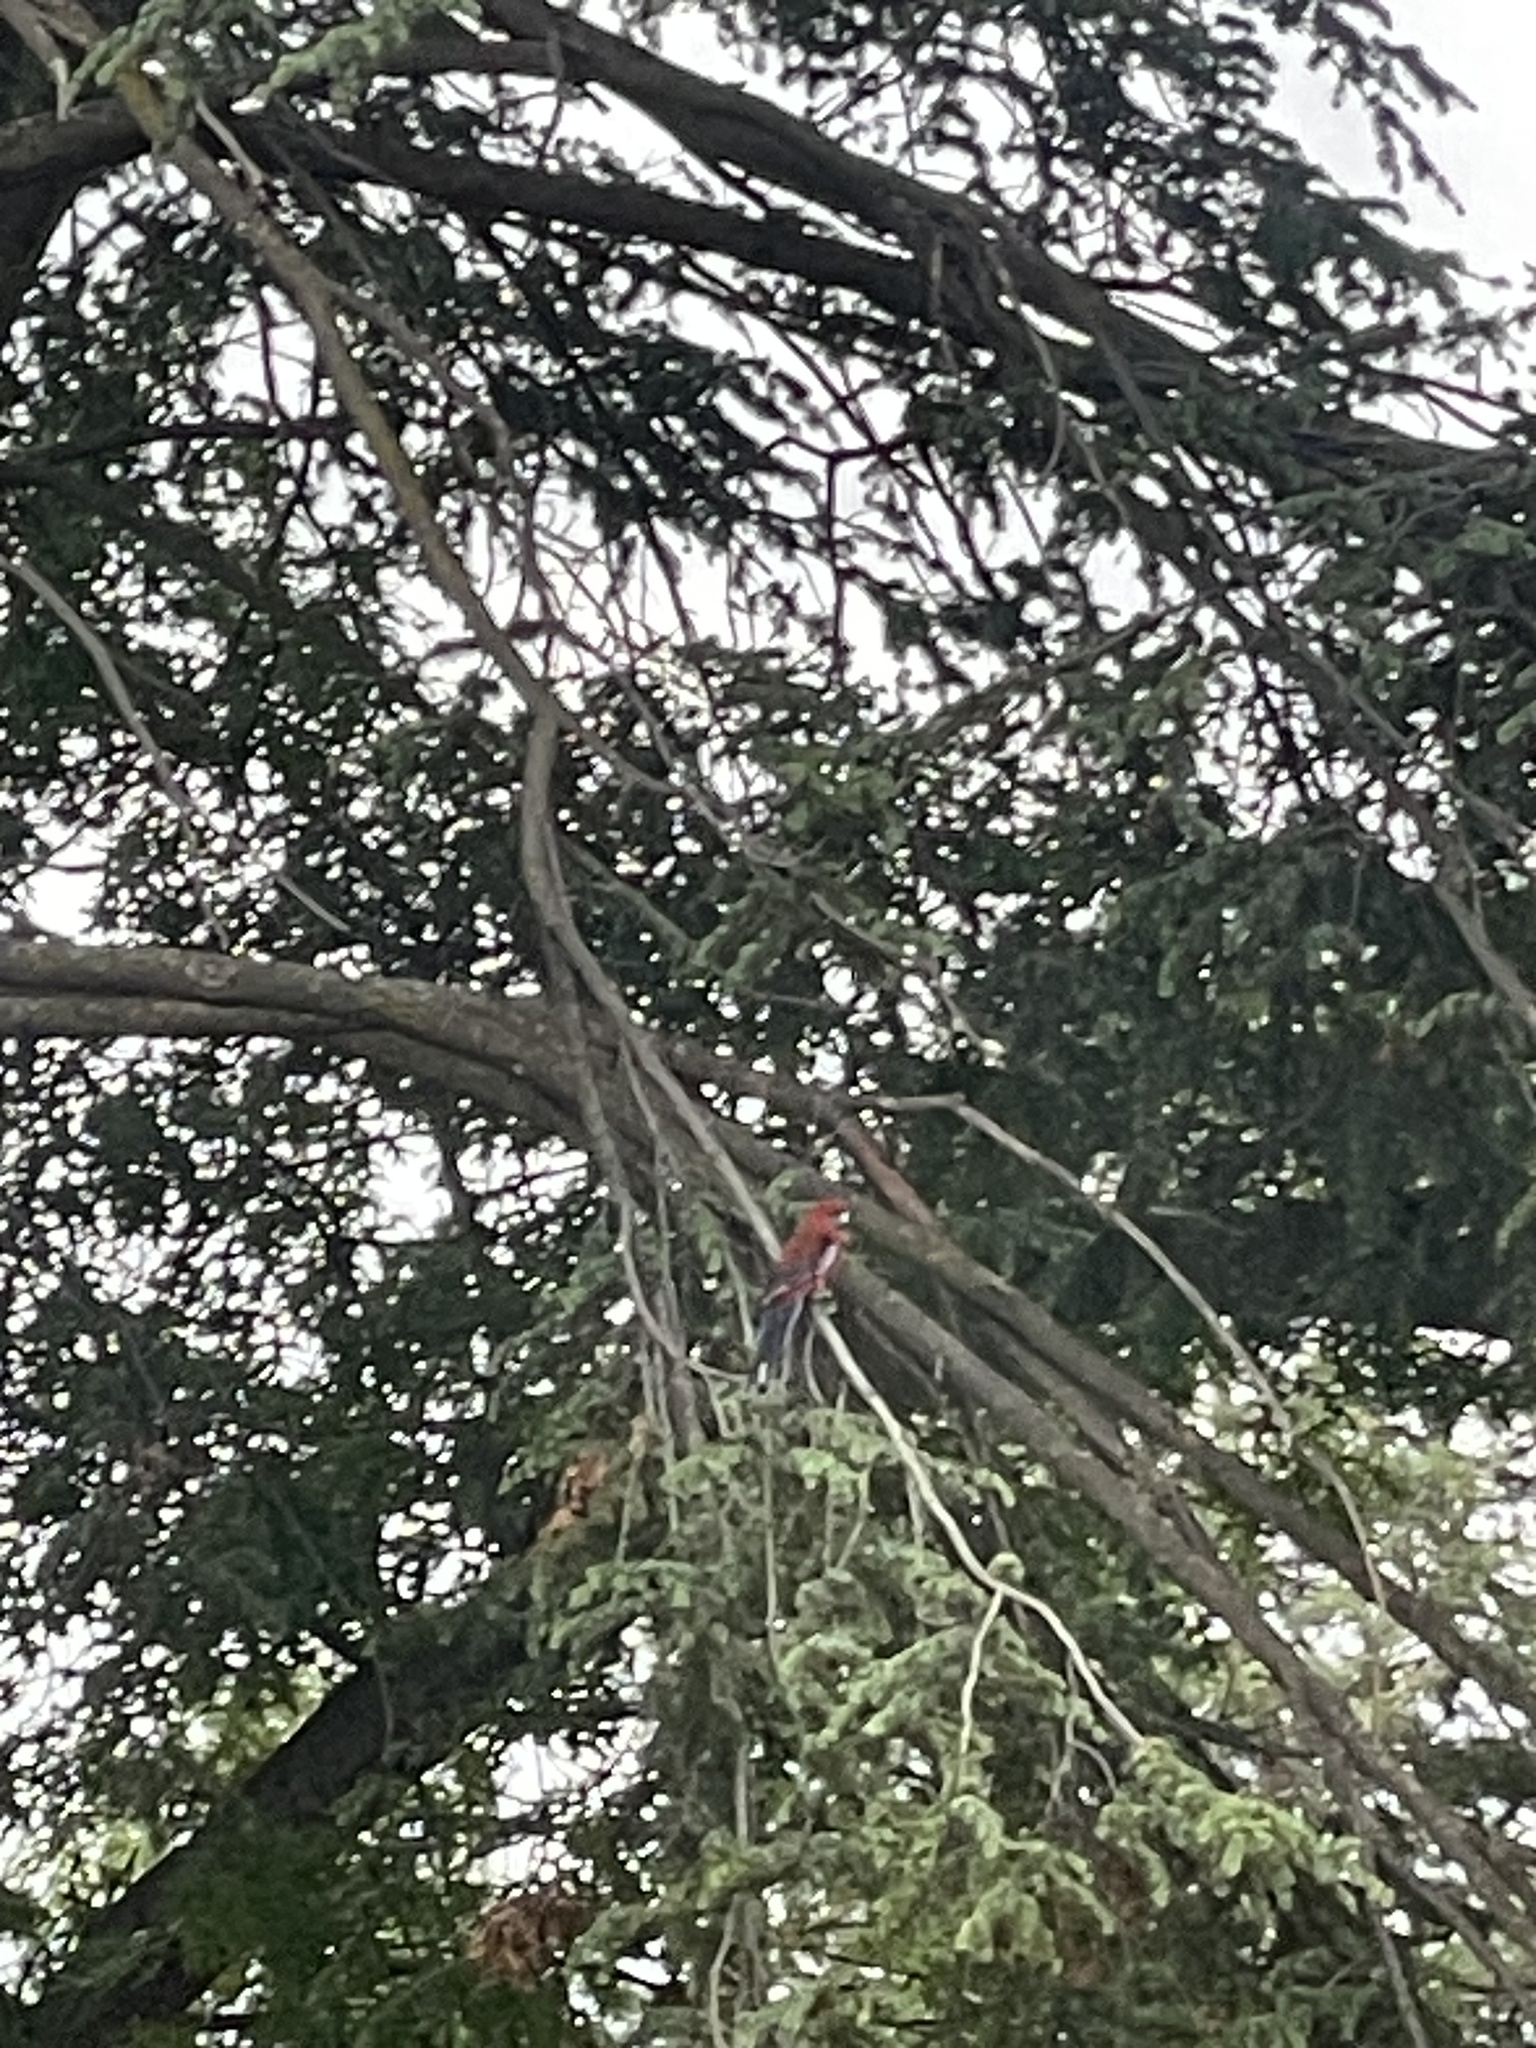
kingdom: Animalia
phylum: Chordata
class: Aves
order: Psittaciformes
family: Psittacidae
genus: Platycercus
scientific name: Platycercus elegans
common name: Crimson rosella
